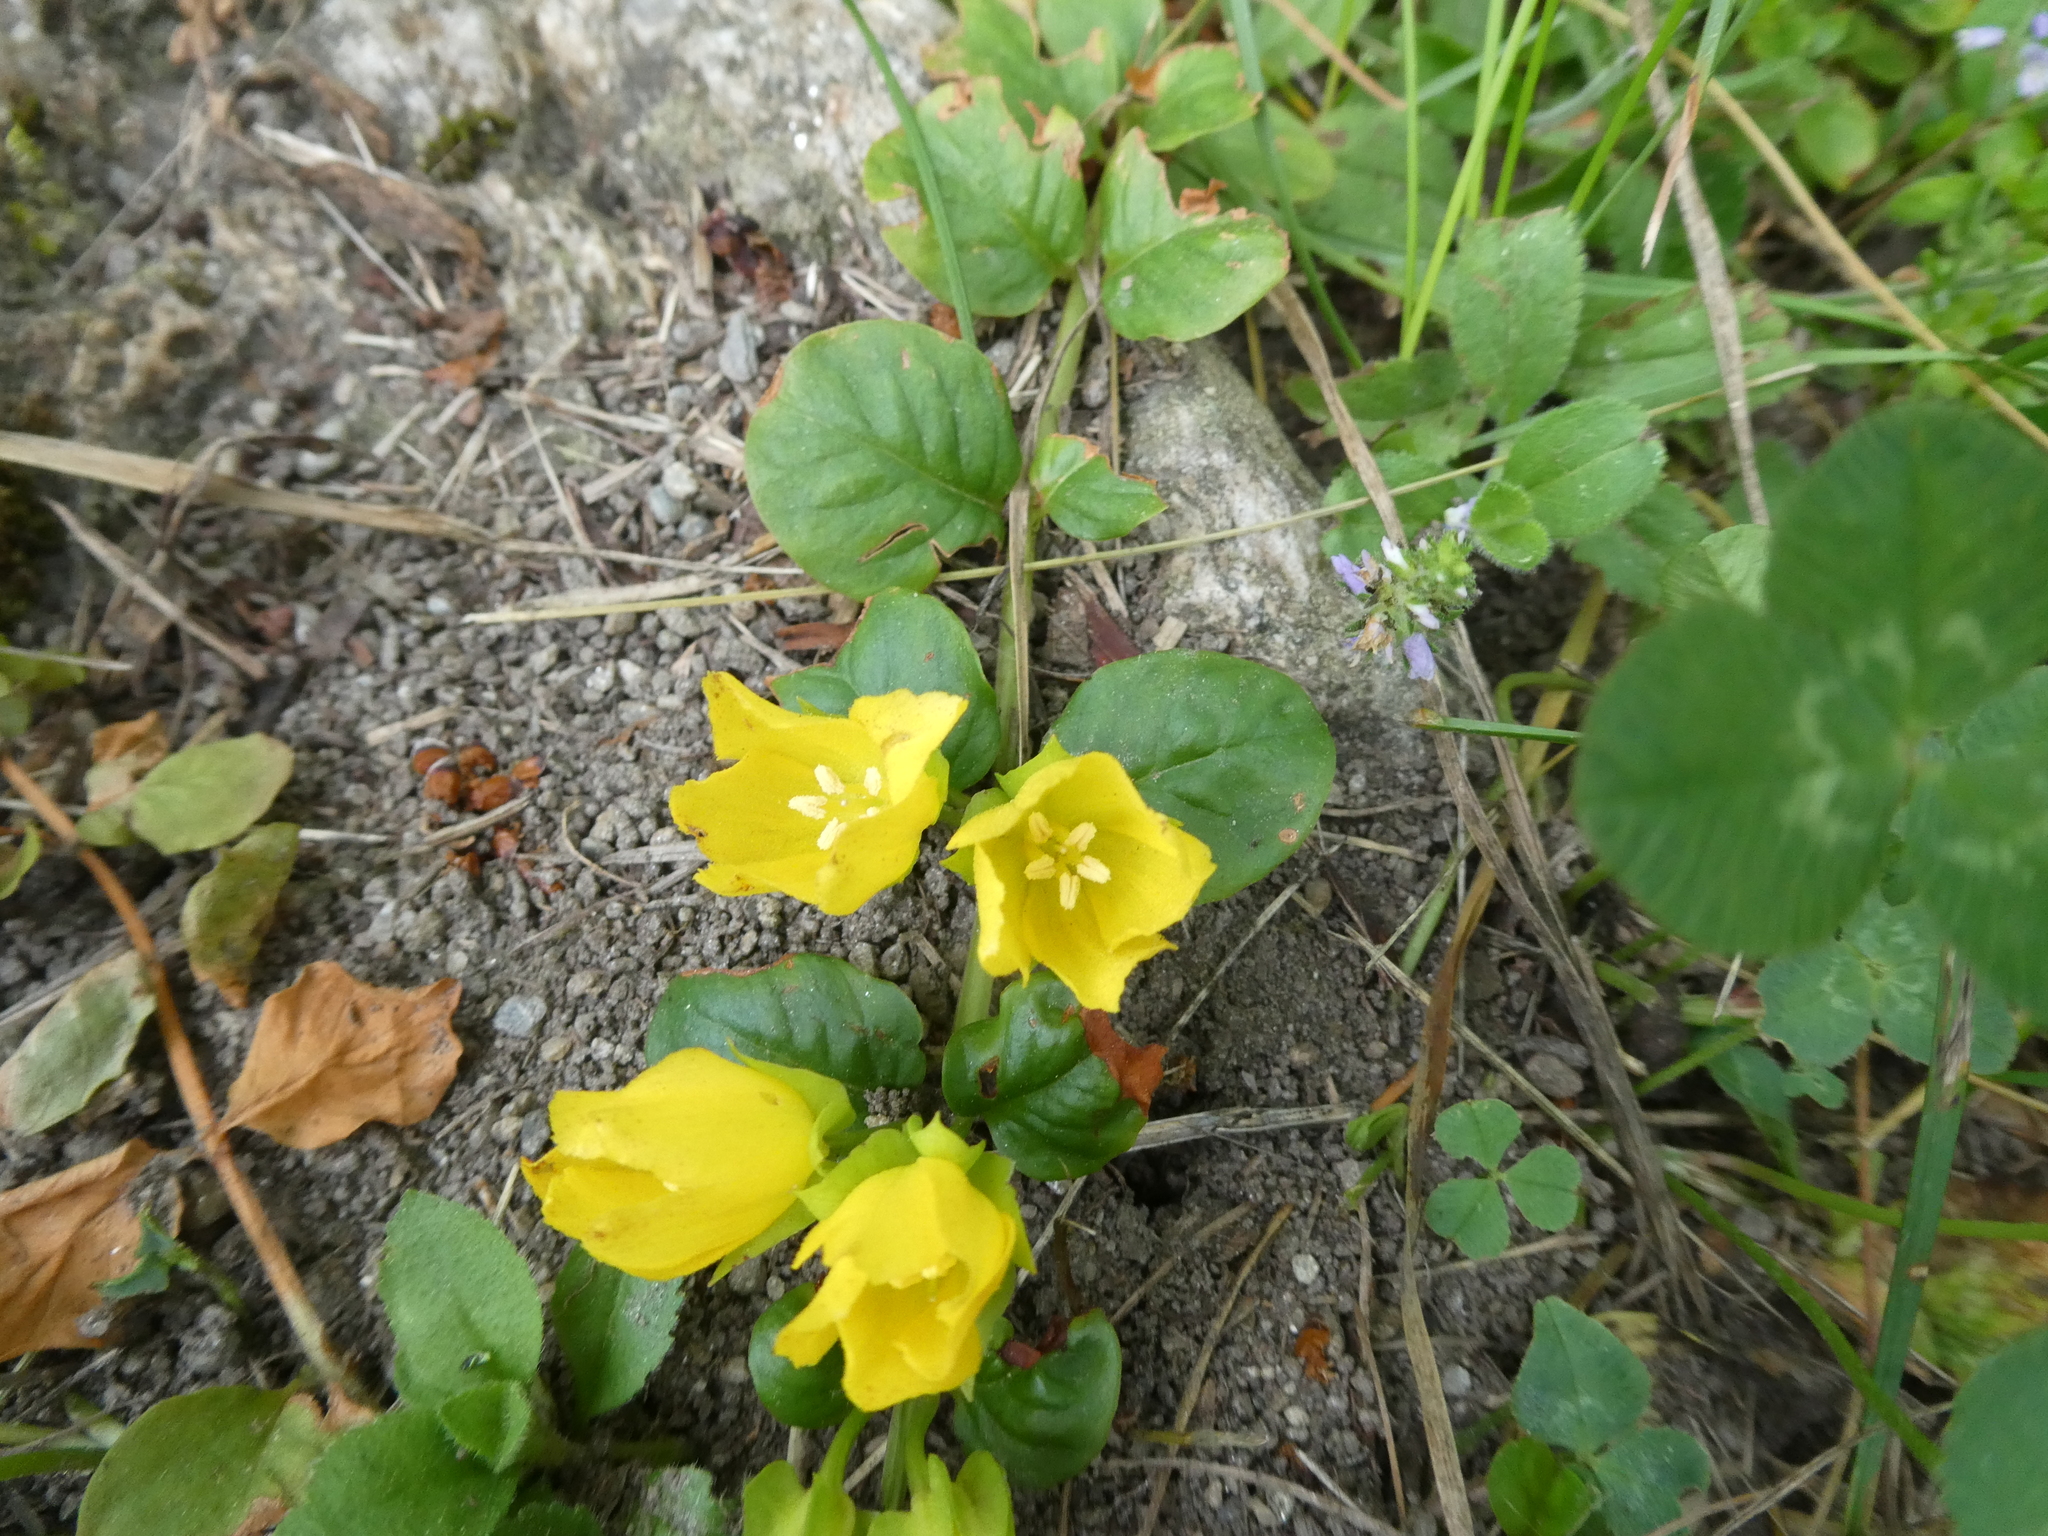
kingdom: Plantae
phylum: Tracheophyta
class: Magnoliopsida
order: Ericales
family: Primulaceae
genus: Lysimachia
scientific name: Lysimachia nummularia
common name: Moneywort
